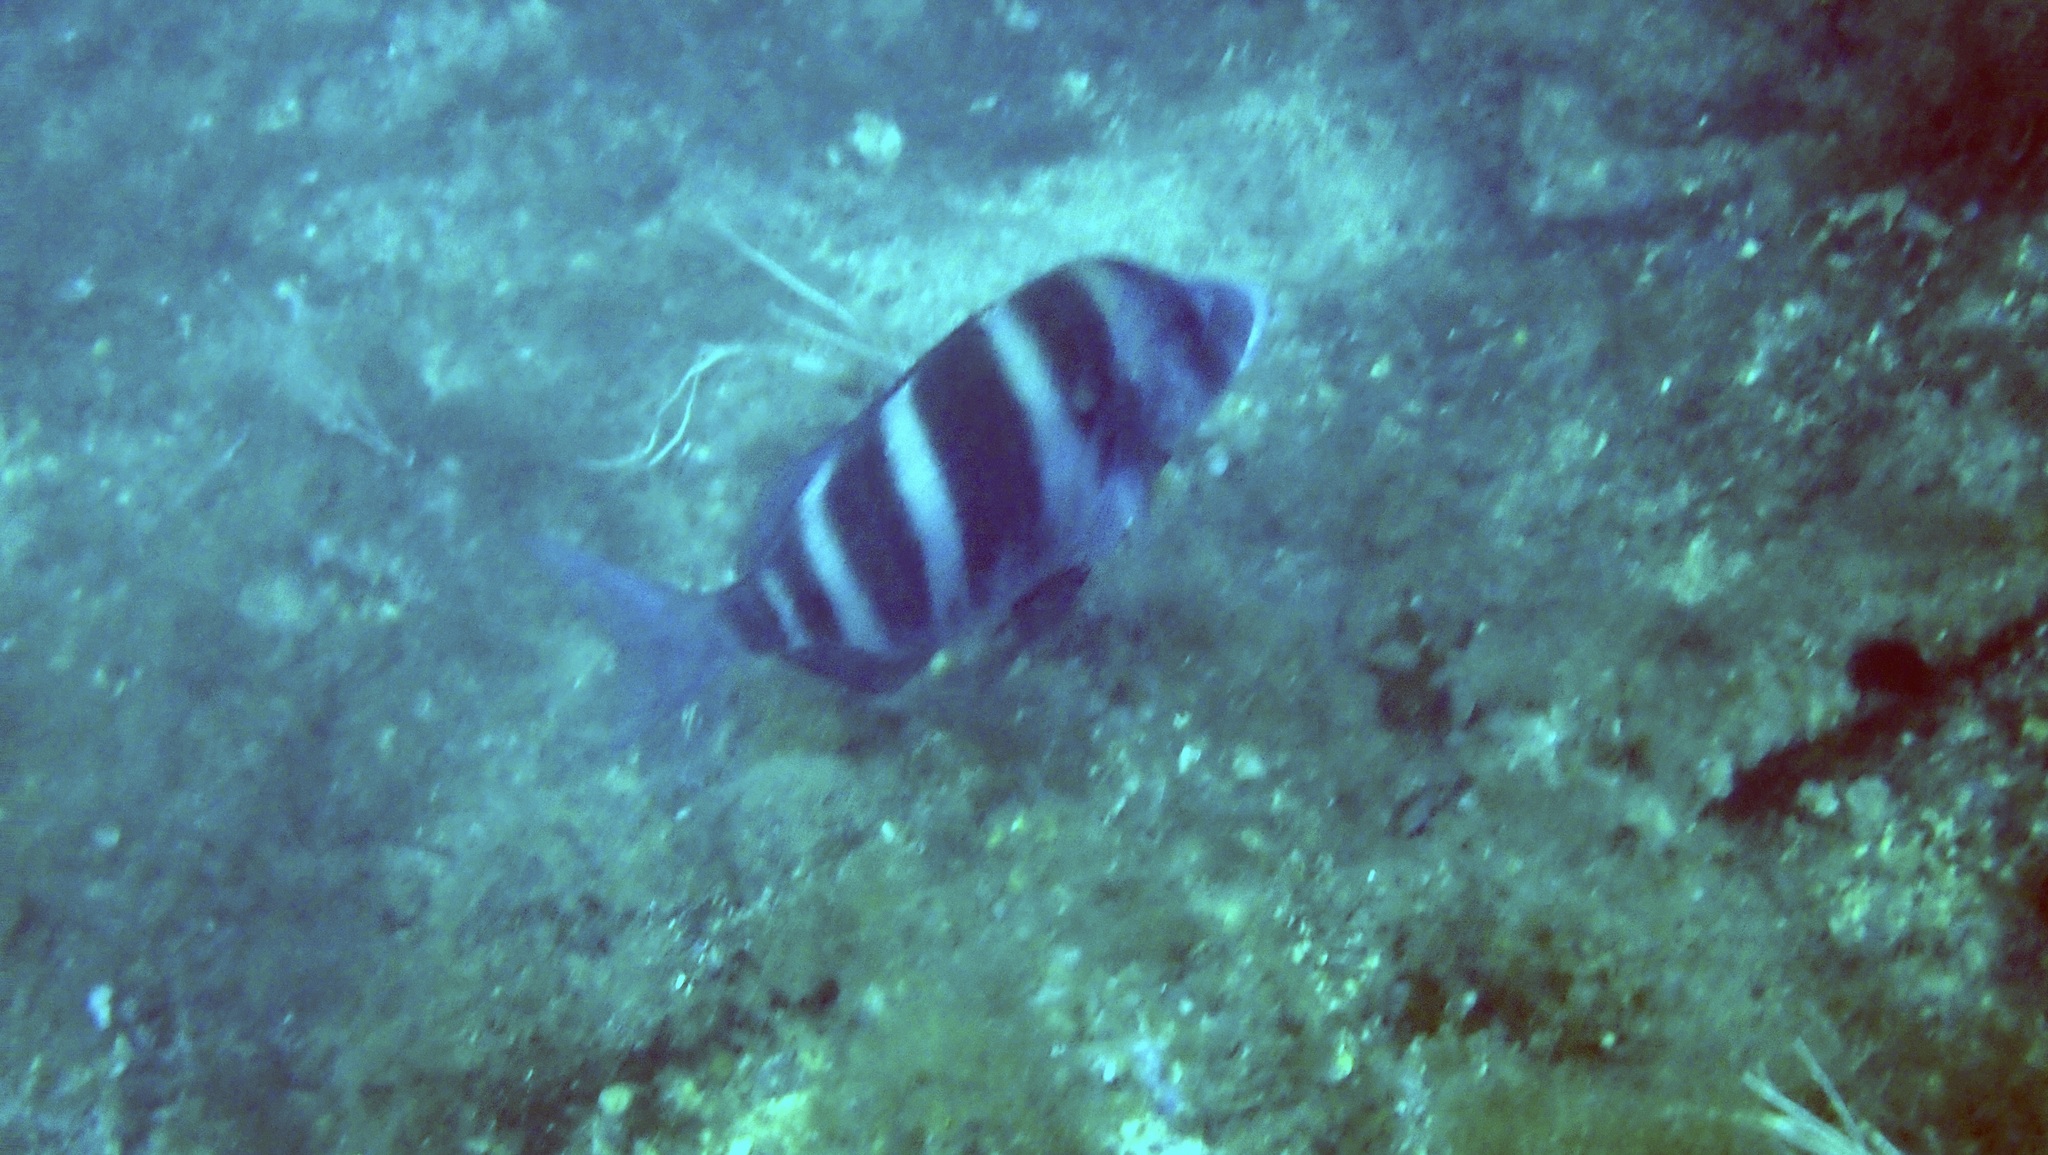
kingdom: Animalia
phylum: Chordata
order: Perciformes
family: Sparidae
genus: Diplodus
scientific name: Diplodus cervinus
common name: Oman porgy
